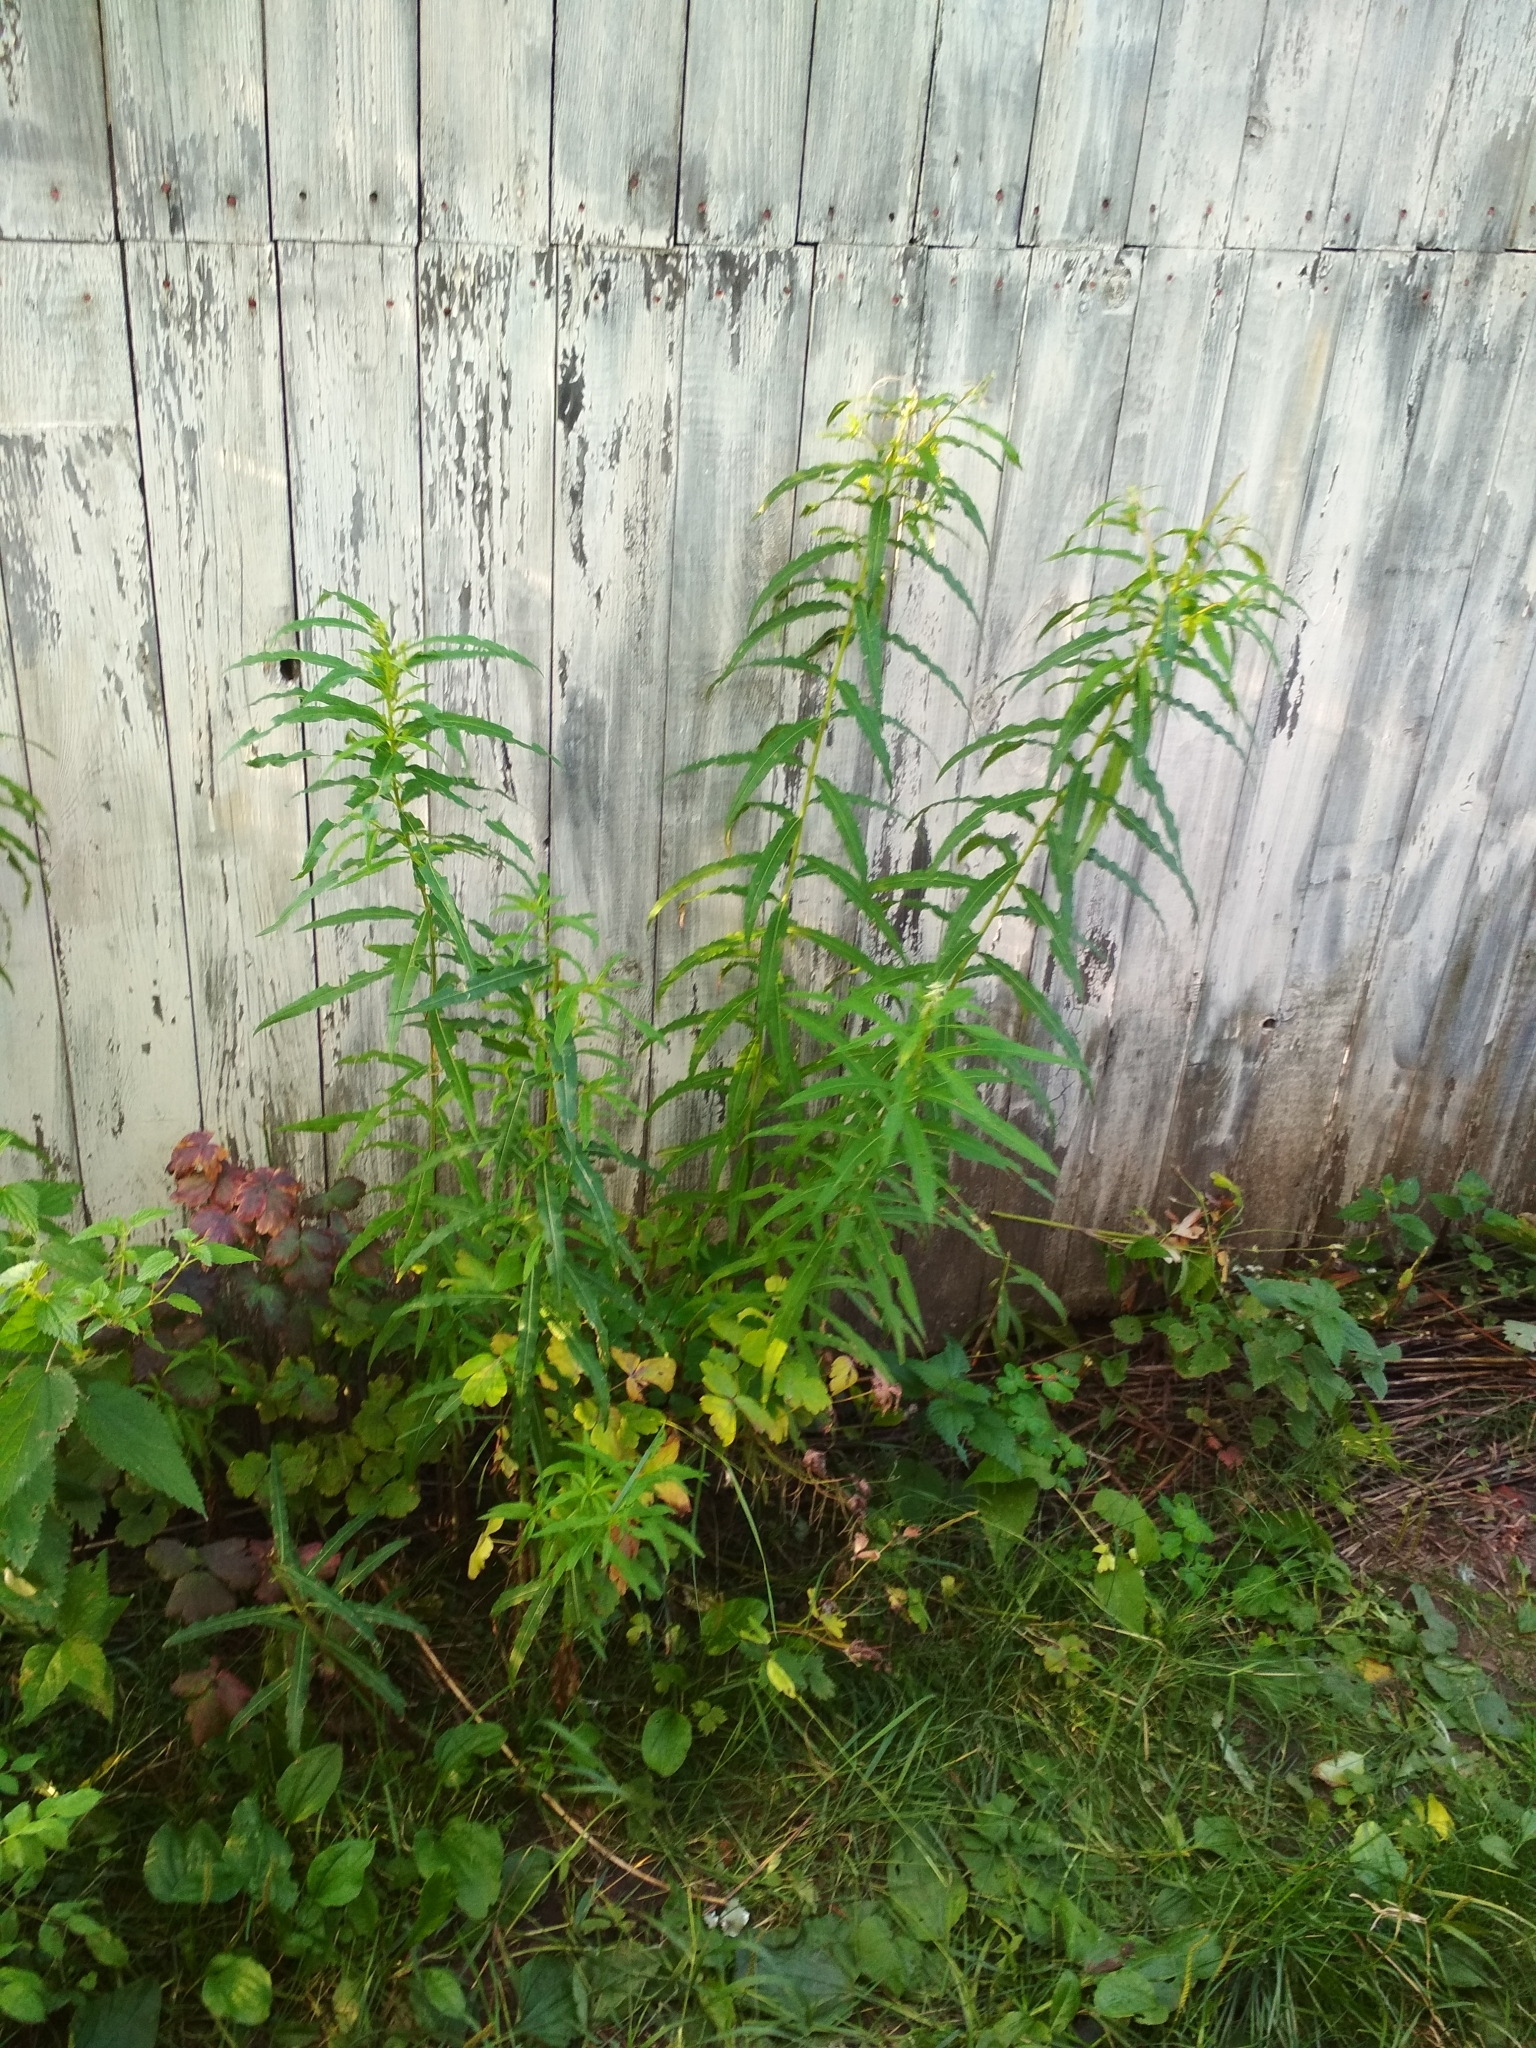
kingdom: Plantae
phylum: Tracheophyta
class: Magnoliopsida
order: Myrtales
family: Onagraceae
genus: Chamaenerion
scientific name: Chamaenerion angustifolium
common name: Fireweed
